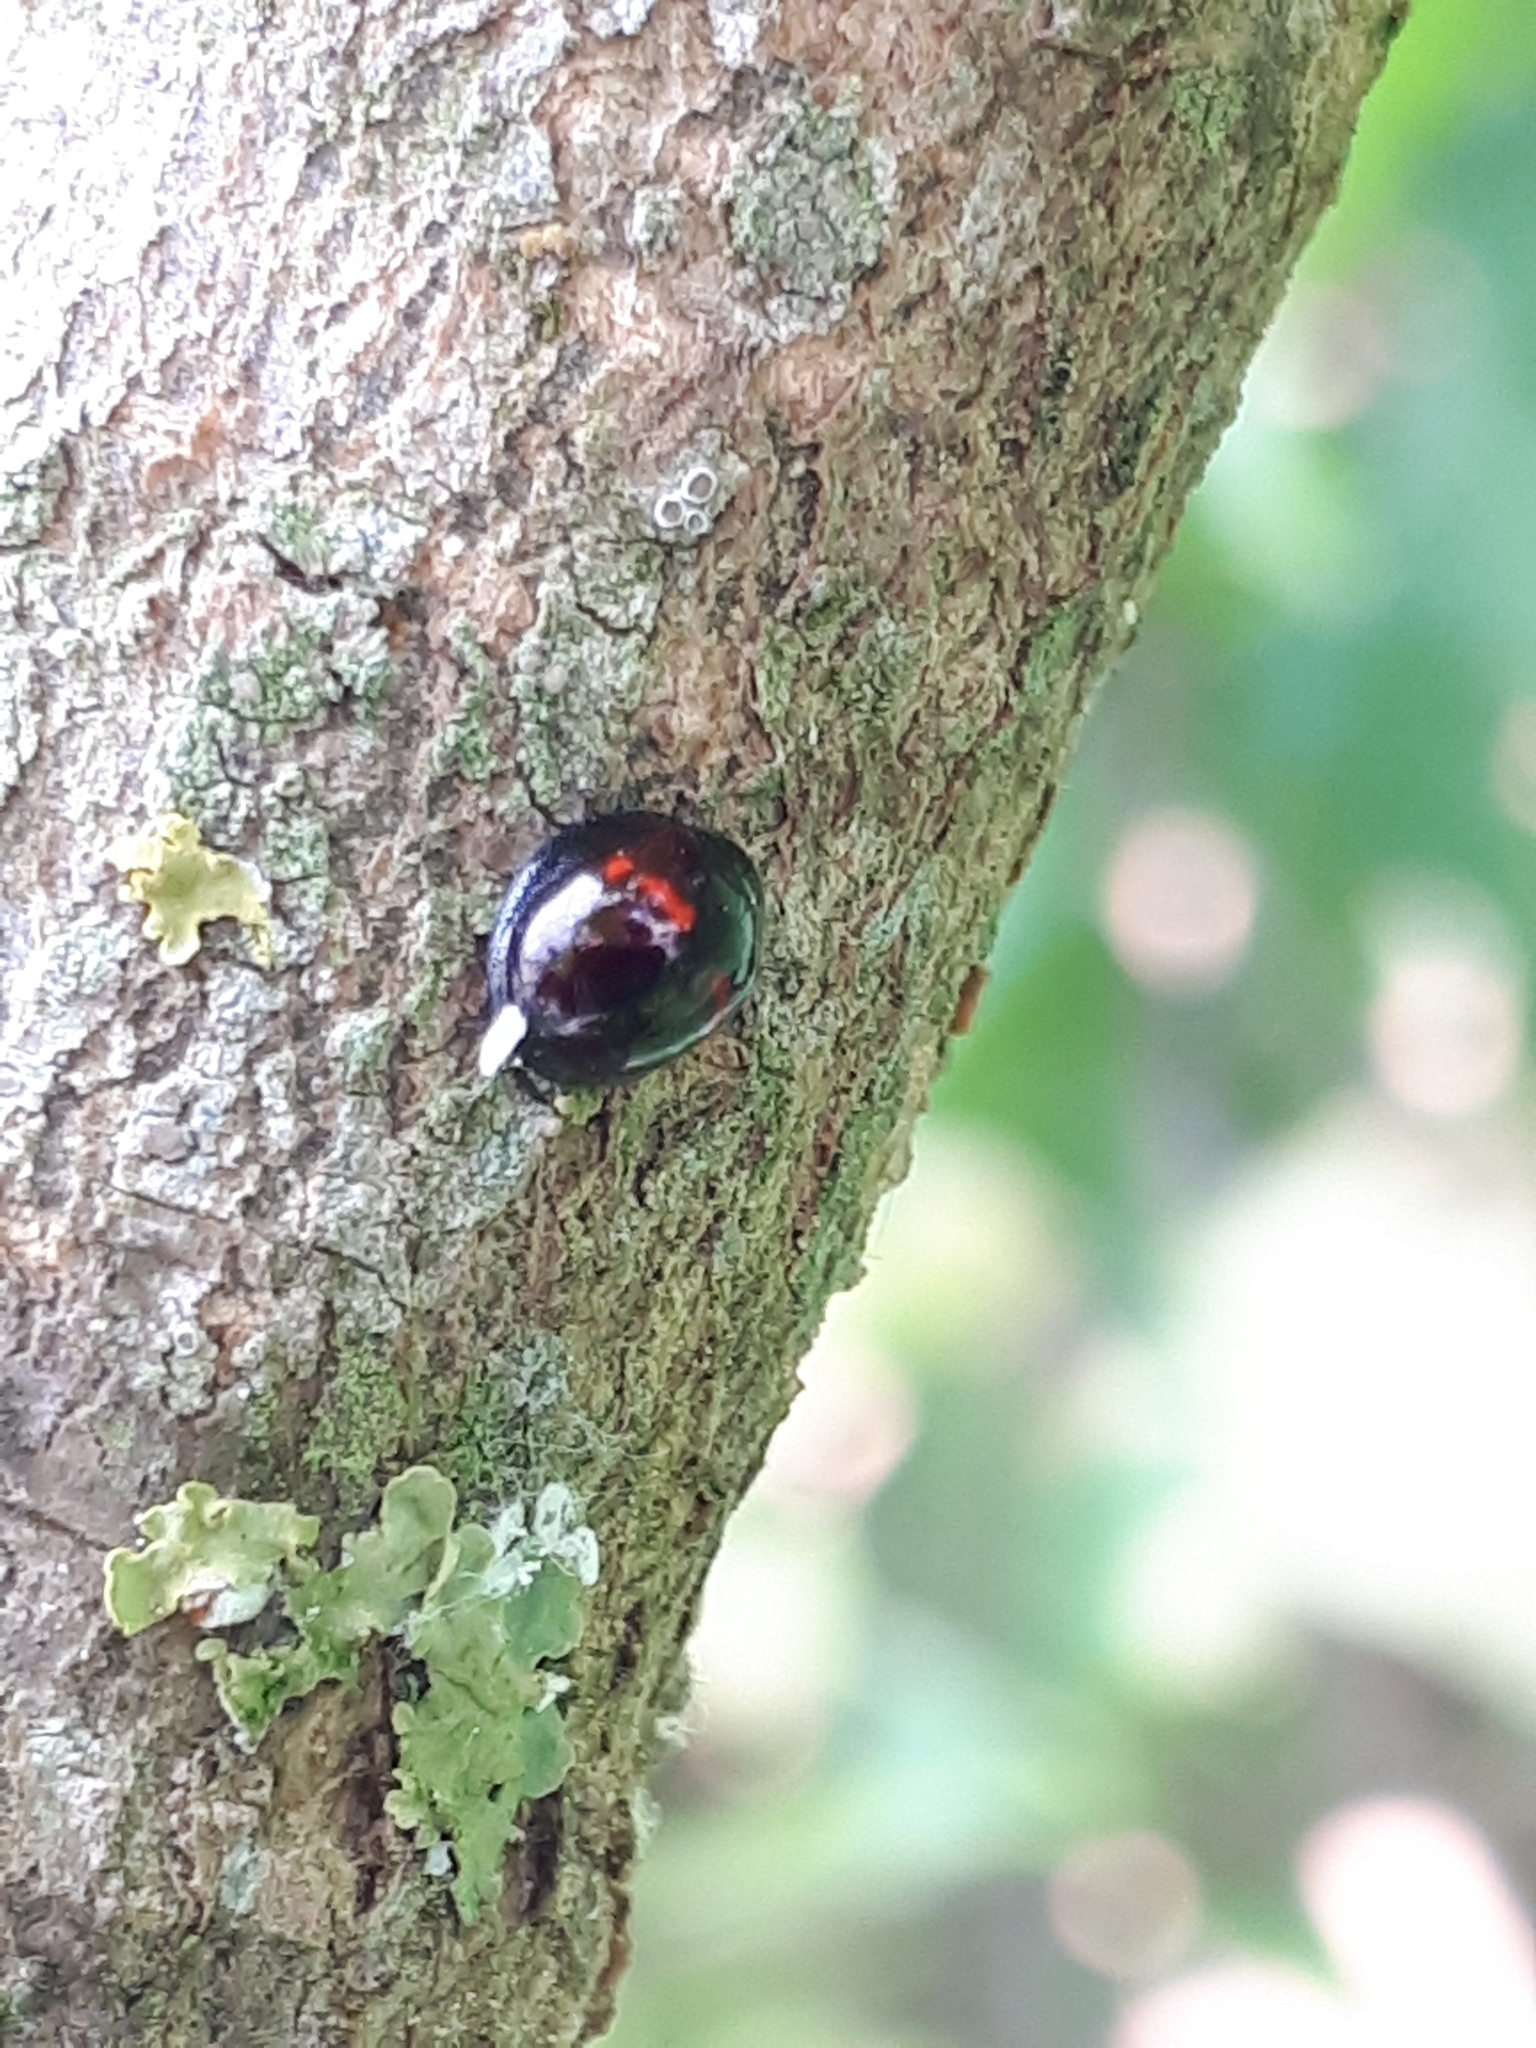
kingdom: Animalia
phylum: Arthropoda
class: Insecta
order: Coleoptera
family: Coccinellidae
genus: Chilocorus
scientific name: Chilocorus bipustulatus
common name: Heather ladybird
